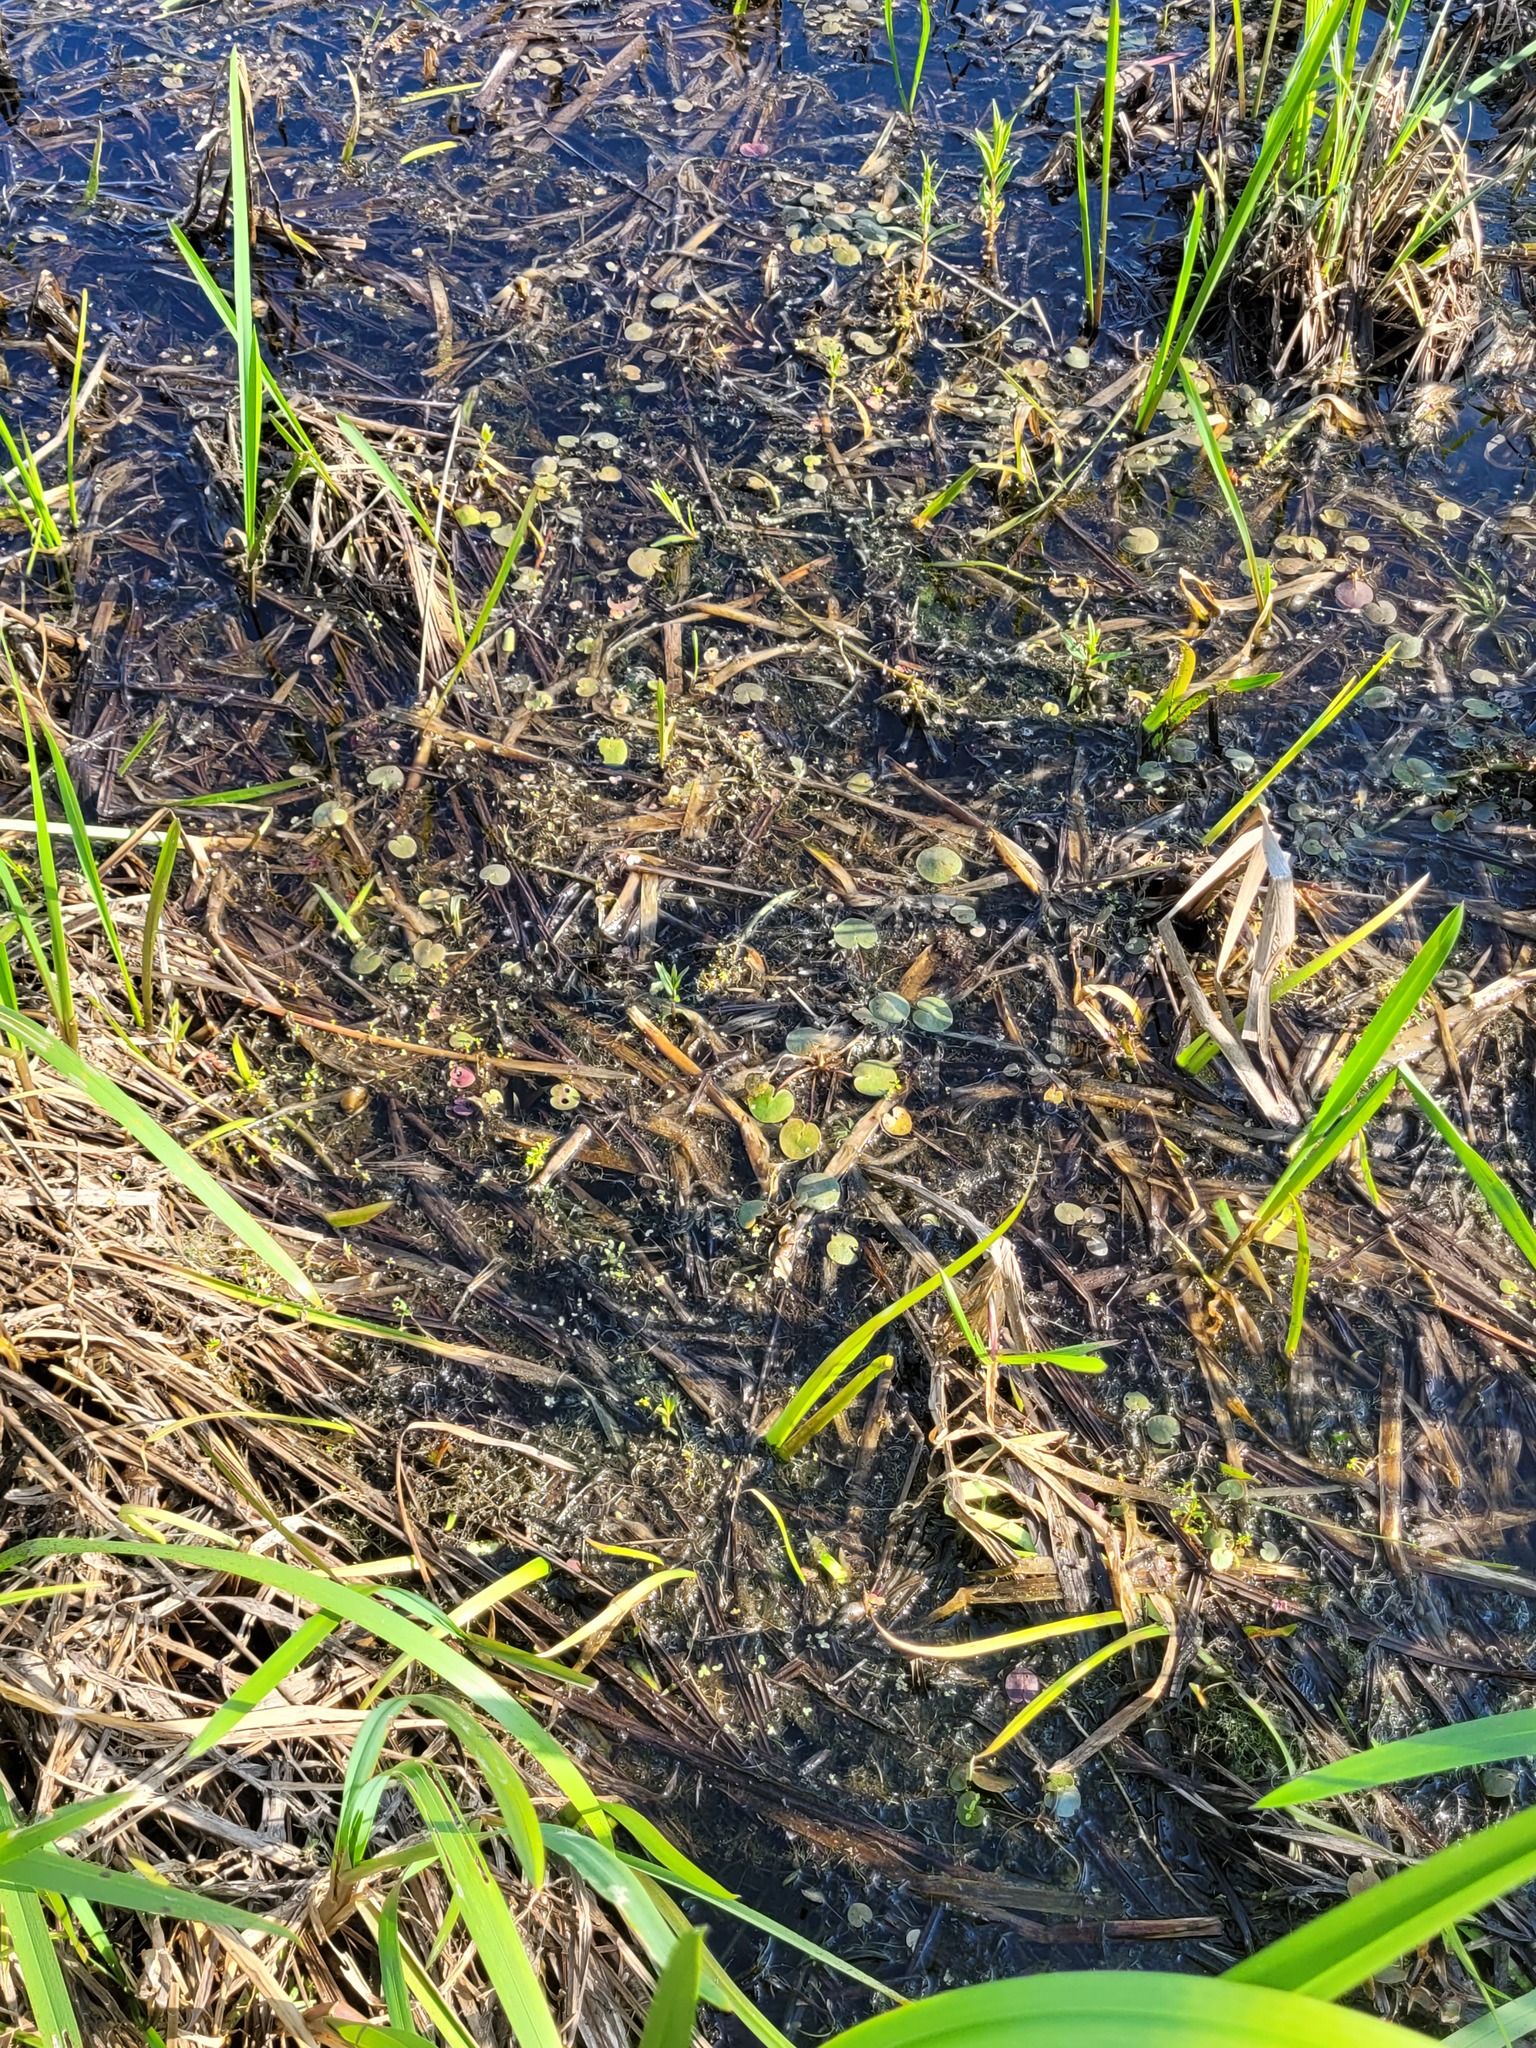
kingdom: Plantae
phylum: Tracheophyta
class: Liliopsida
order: Alismatales
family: Hydrocharitaceae
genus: Hydrocharis
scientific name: Hydrocharis morsus-ranae
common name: Frogbit
